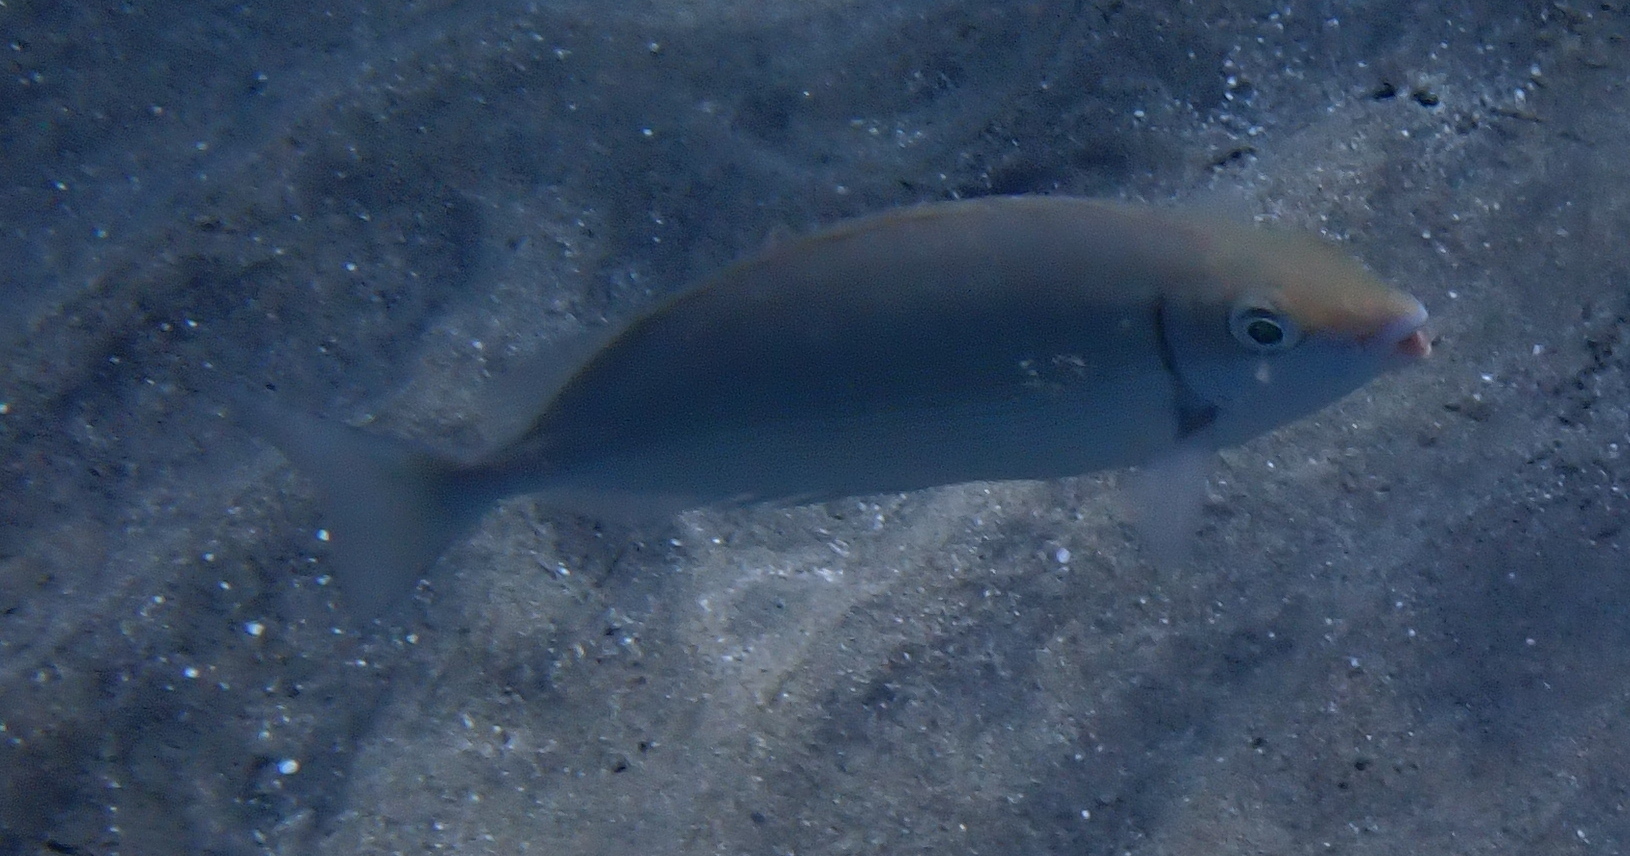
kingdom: Animalia
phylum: Chordata
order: Perciformes
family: Siganidae
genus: Siganus
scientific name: Siganus rivulatus
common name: Marbled spinefoot
